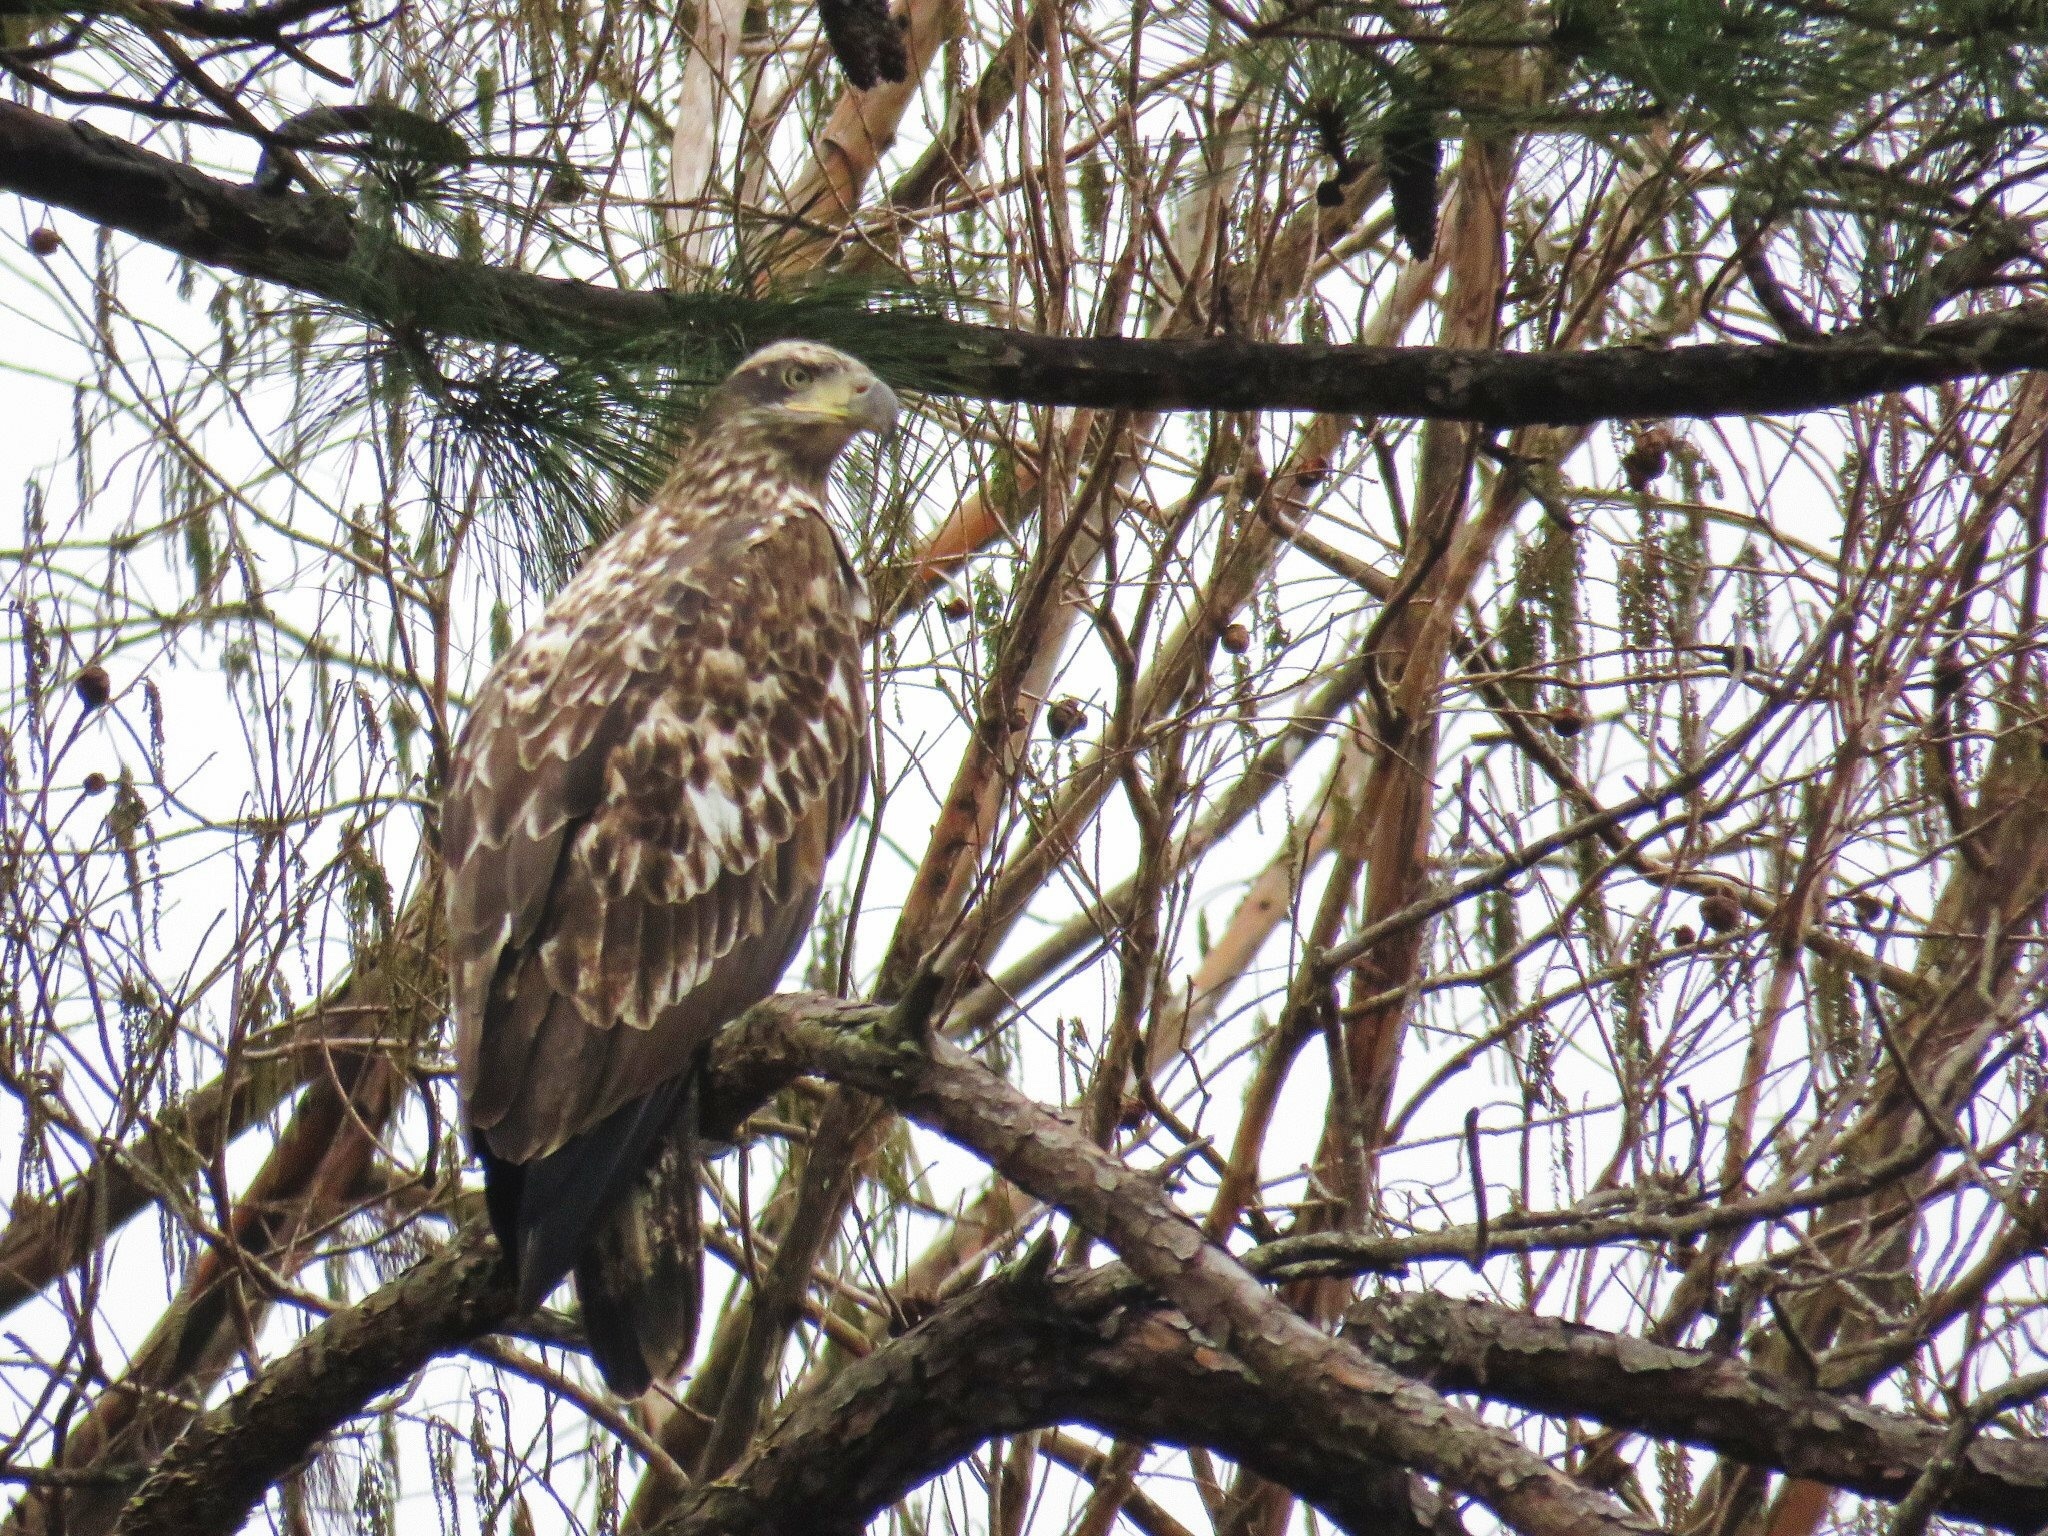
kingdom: Animalia
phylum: Chordata
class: Aves
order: Accipitriformes
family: Accipitridae
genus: Haliaeetus
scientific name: Haliaeetus leucocephalus
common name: Bald eagle
